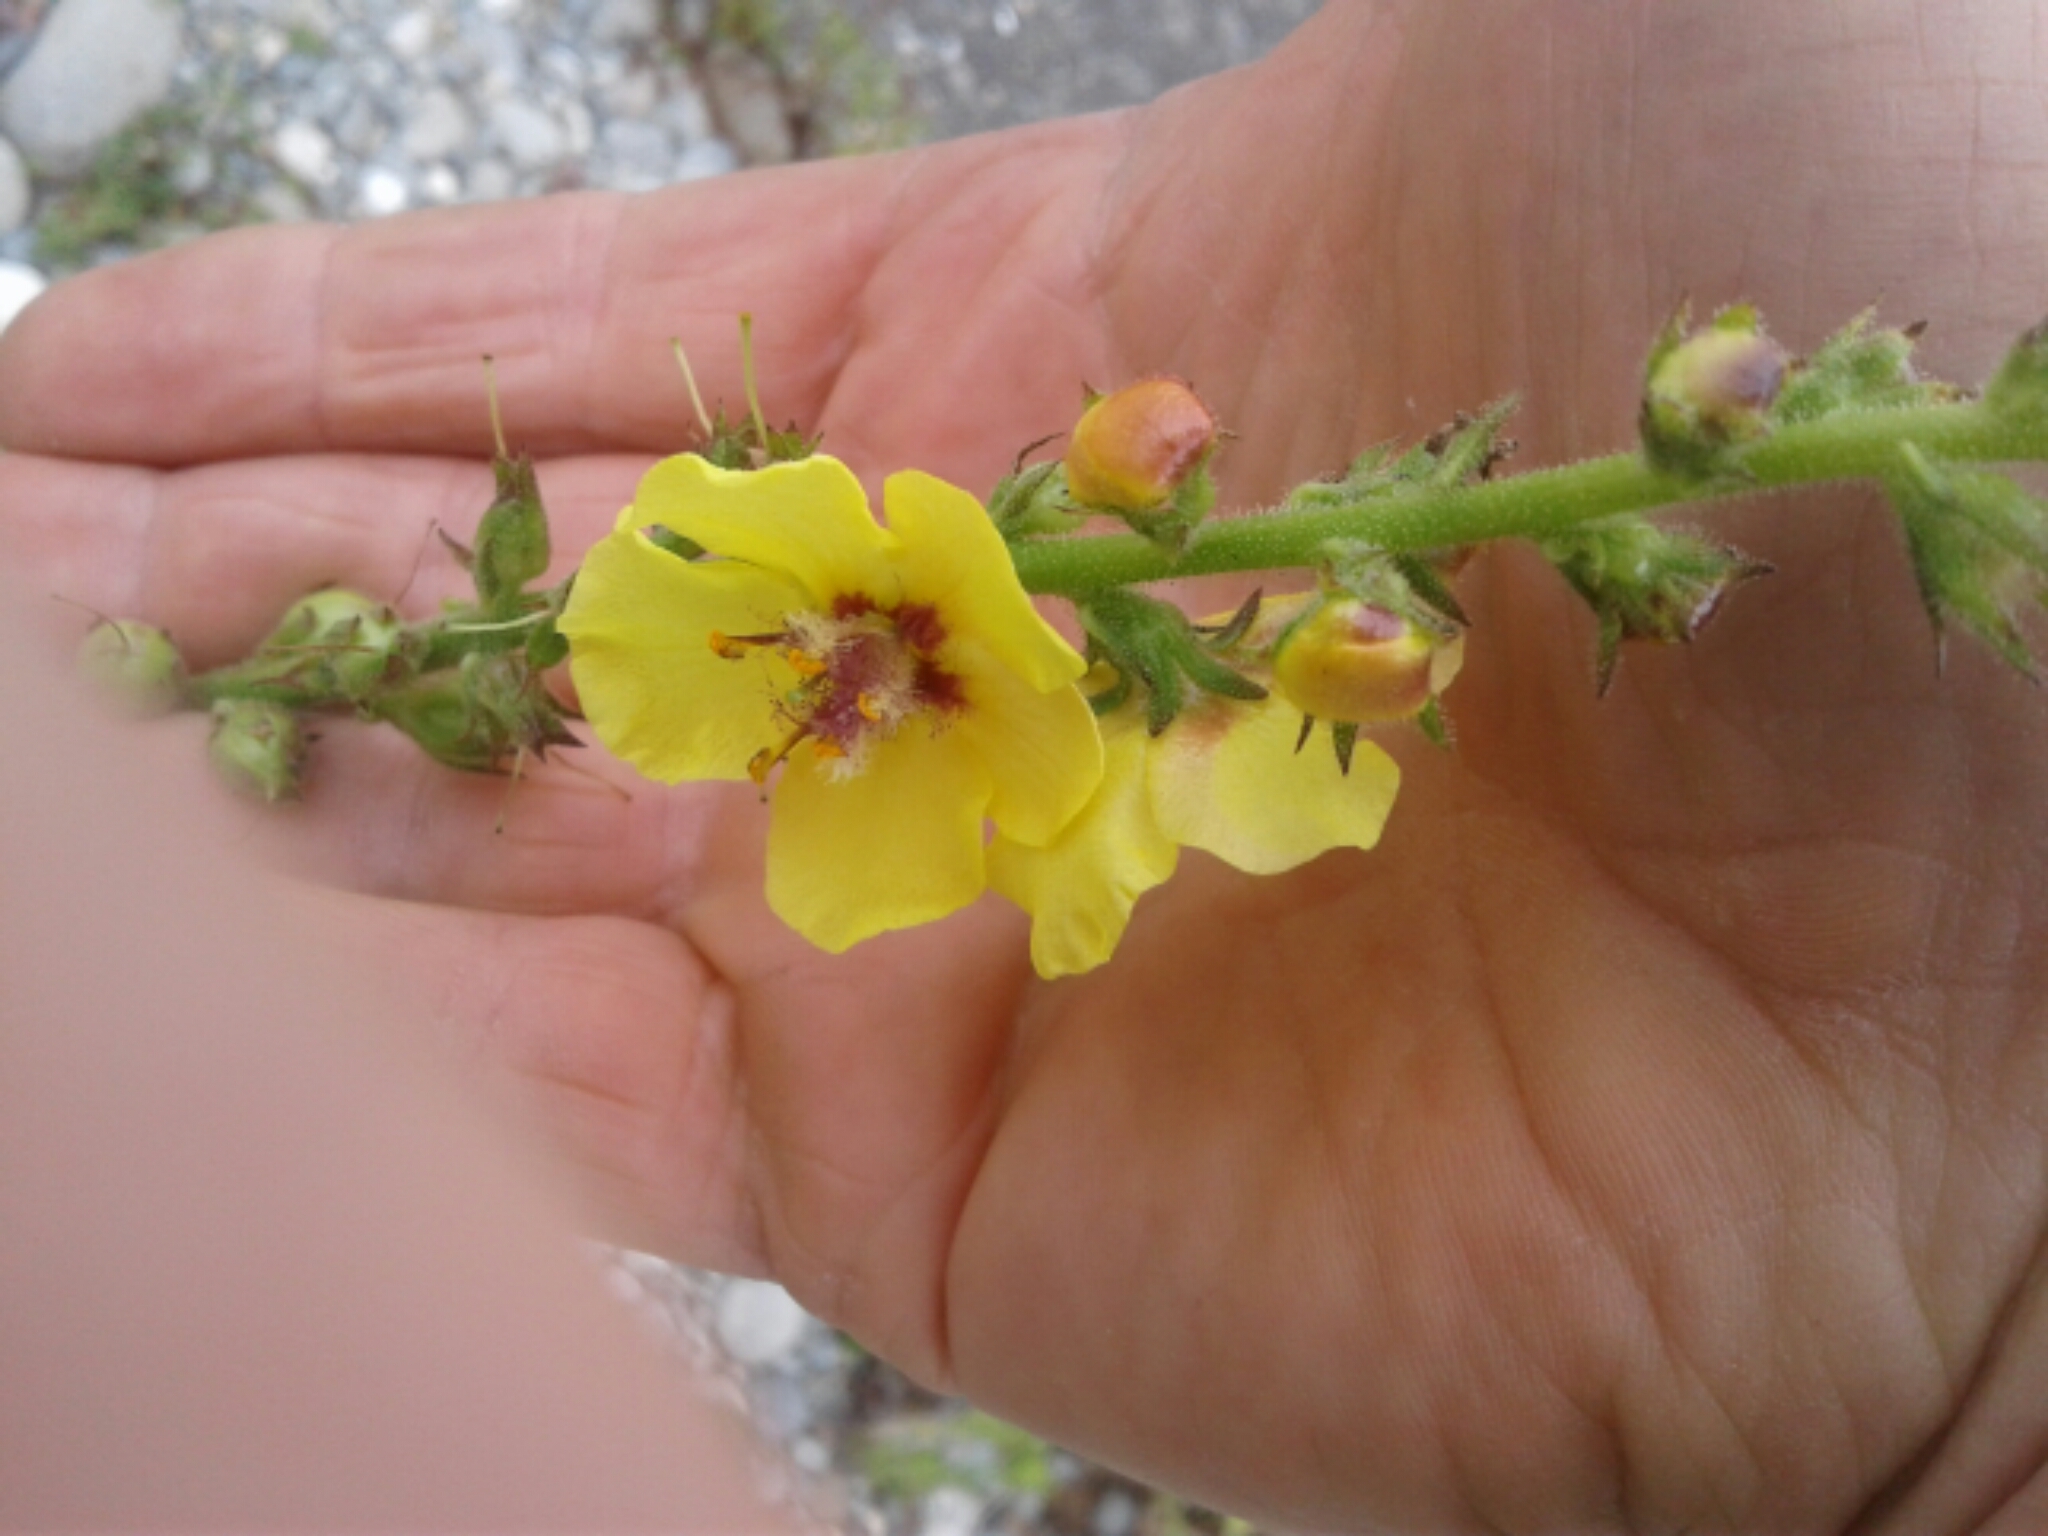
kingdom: Plantae
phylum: Tracheophyta
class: Magnoliopsida
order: Lamiales
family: Scrophulariaceae
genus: Verbascum
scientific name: Verbascum virgatum
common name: Twiggy mullein
